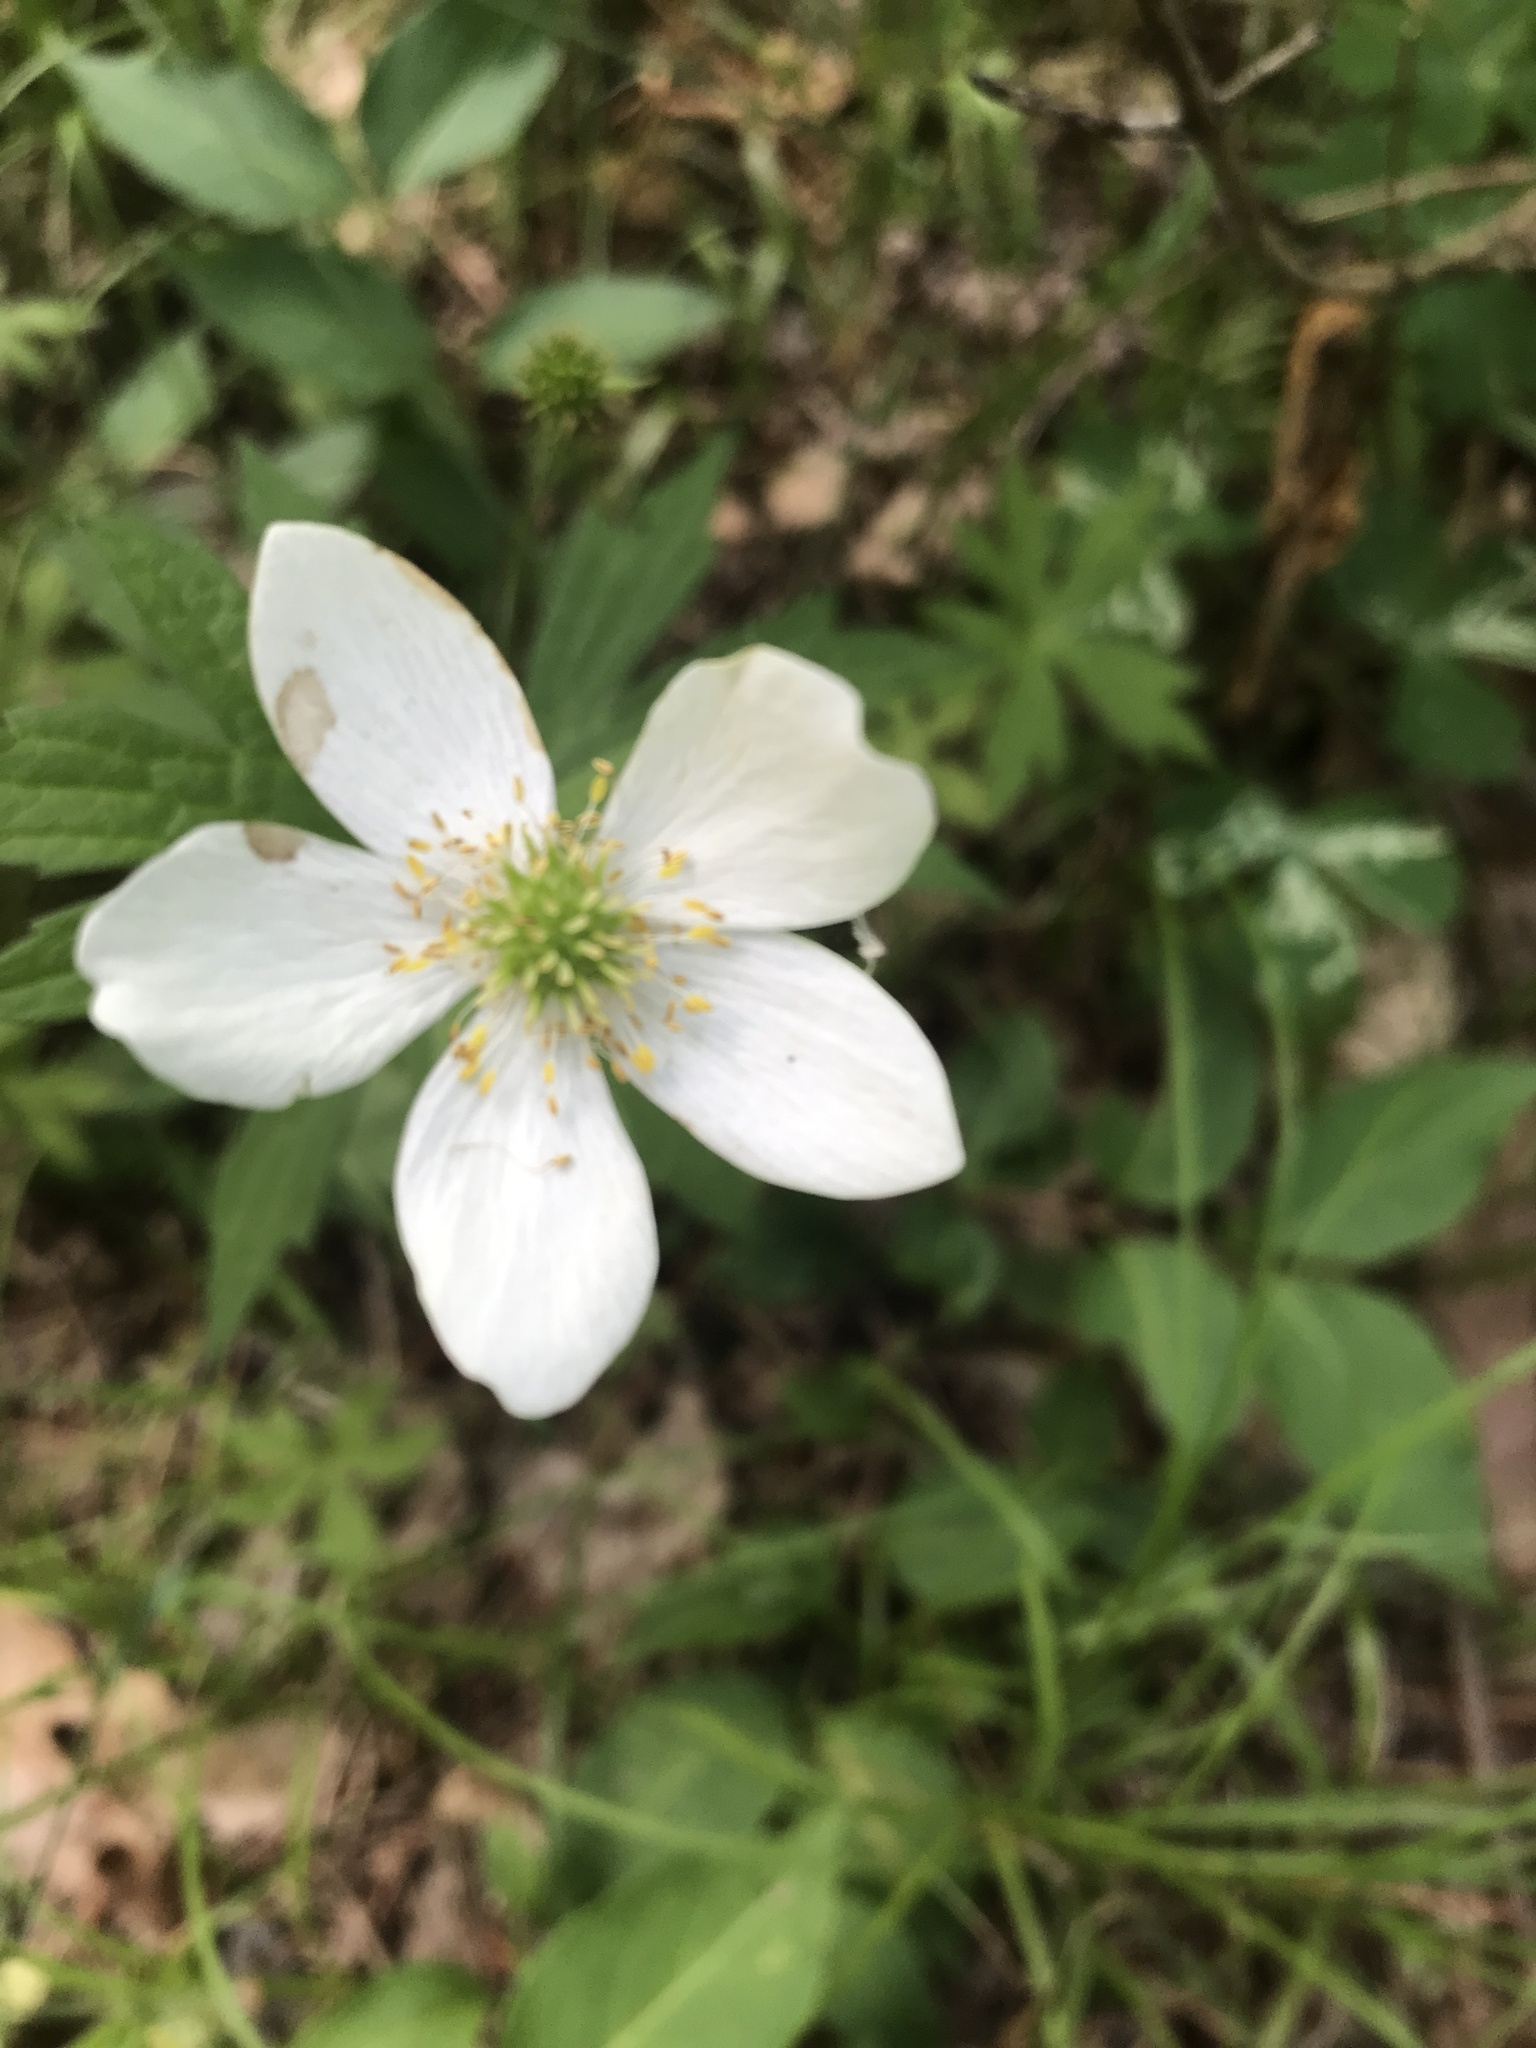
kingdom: Plantae
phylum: Tracheophyta
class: Magnoliopsida
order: Ranunculales
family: Ranunculaceae
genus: Anemonastrum
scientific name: Anemonastrum canadense
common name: Canada anemone
